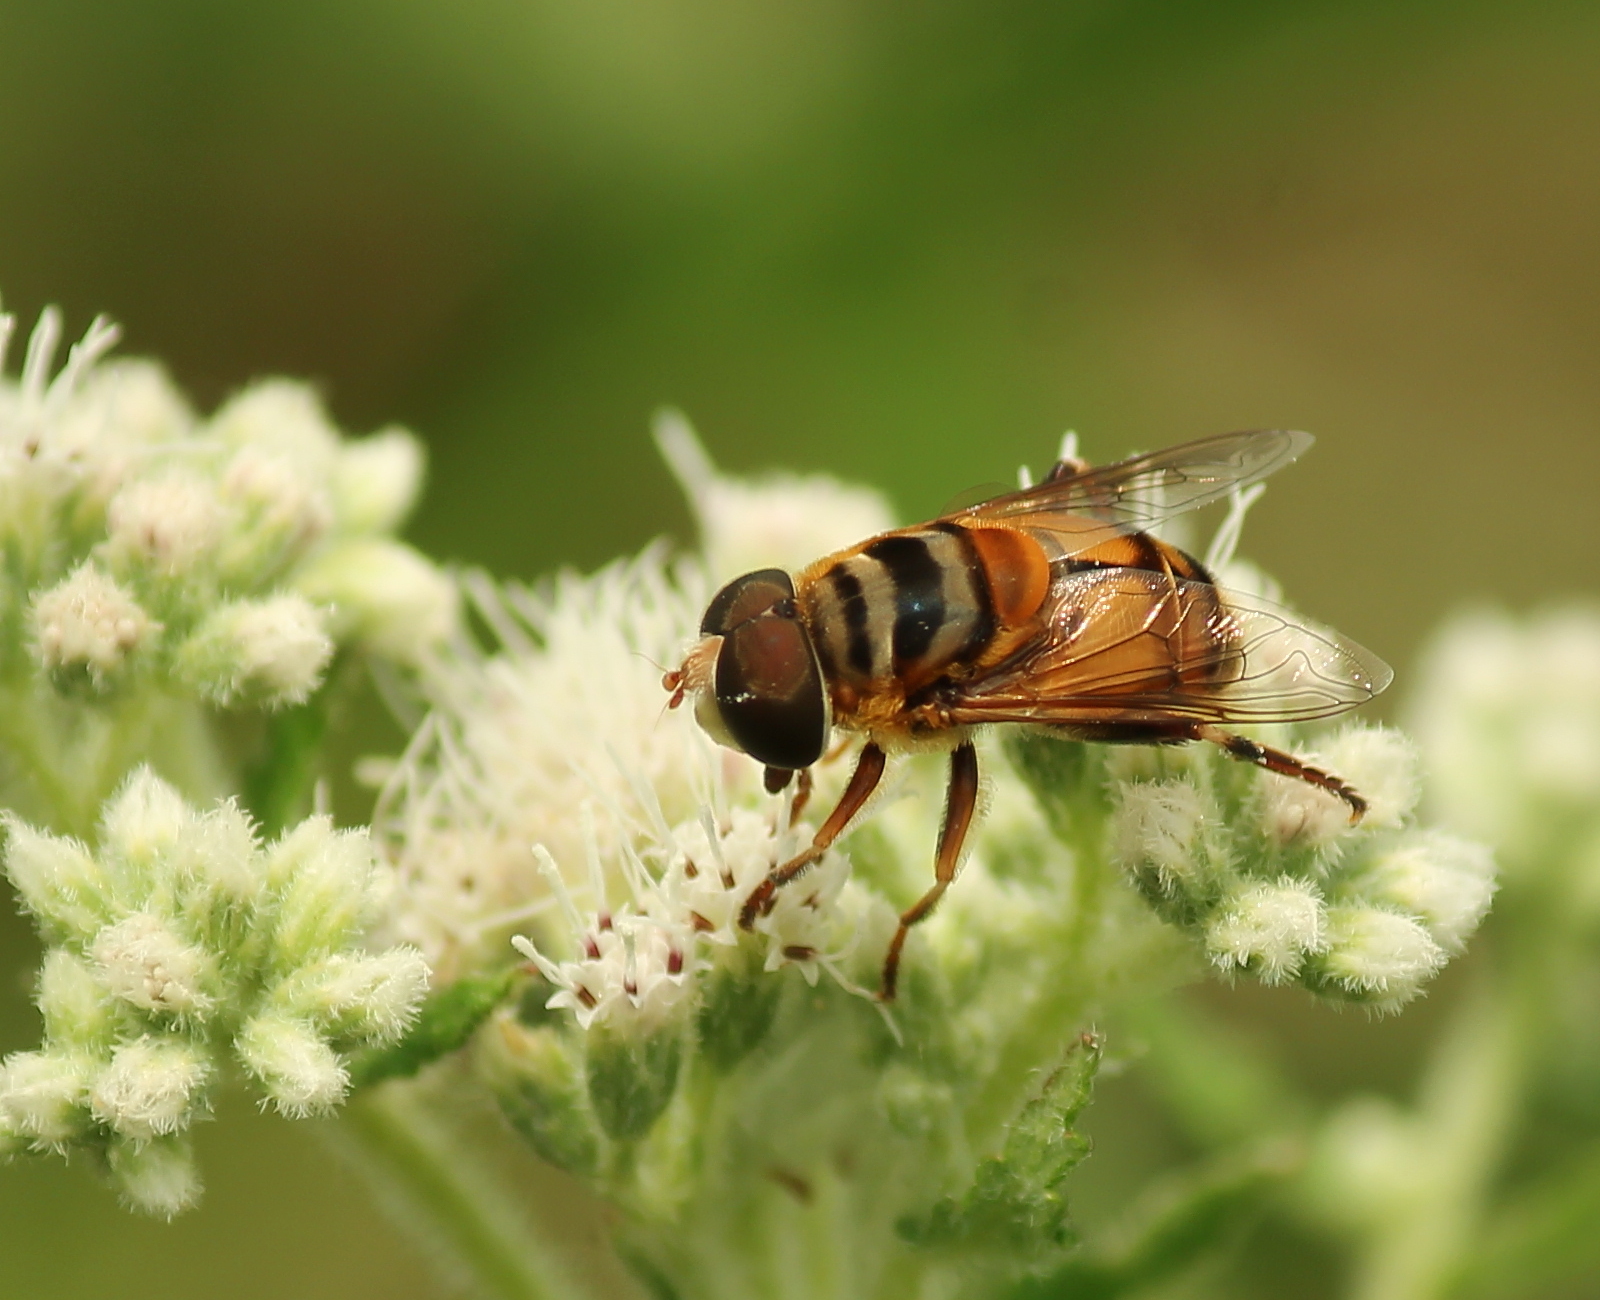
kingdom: Animalia
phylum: Arthropoda
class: Insecta
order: Diptera
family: Syrphidae
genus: Palpada
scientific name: Palpada vinetorum
